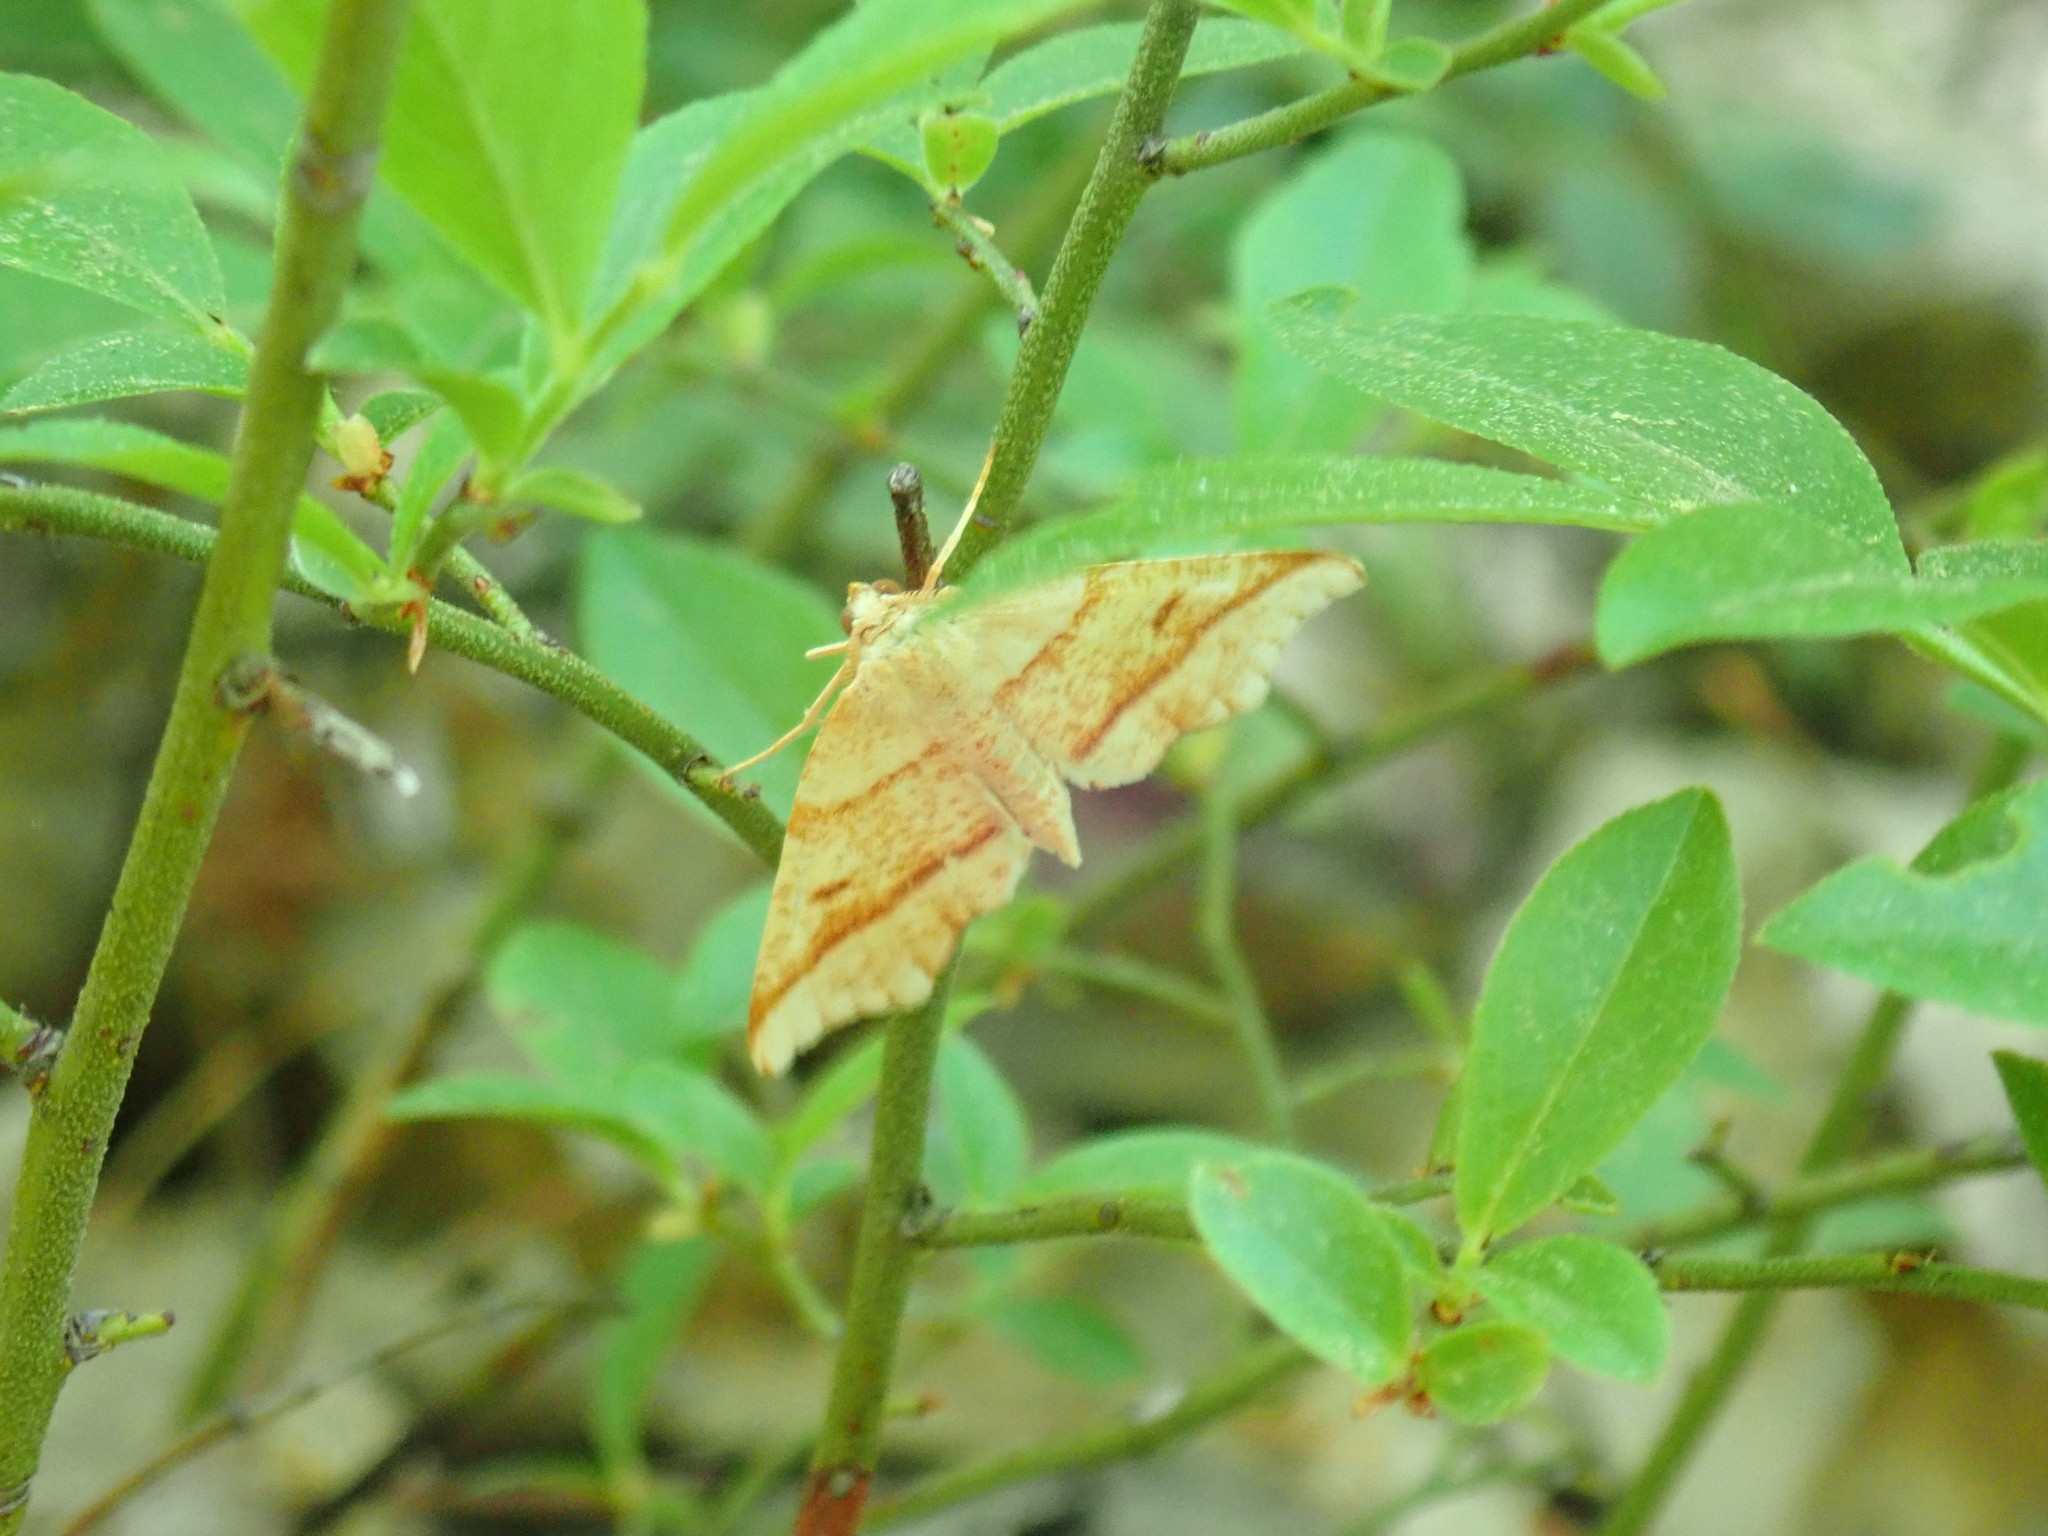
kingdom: Animalia
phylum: Arthropoda
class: Insecta
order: Lepidoptera
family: Geometridae
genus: Plagodis
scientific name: Plagodis alcoolaria
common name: Hollow-spotted plagodis
